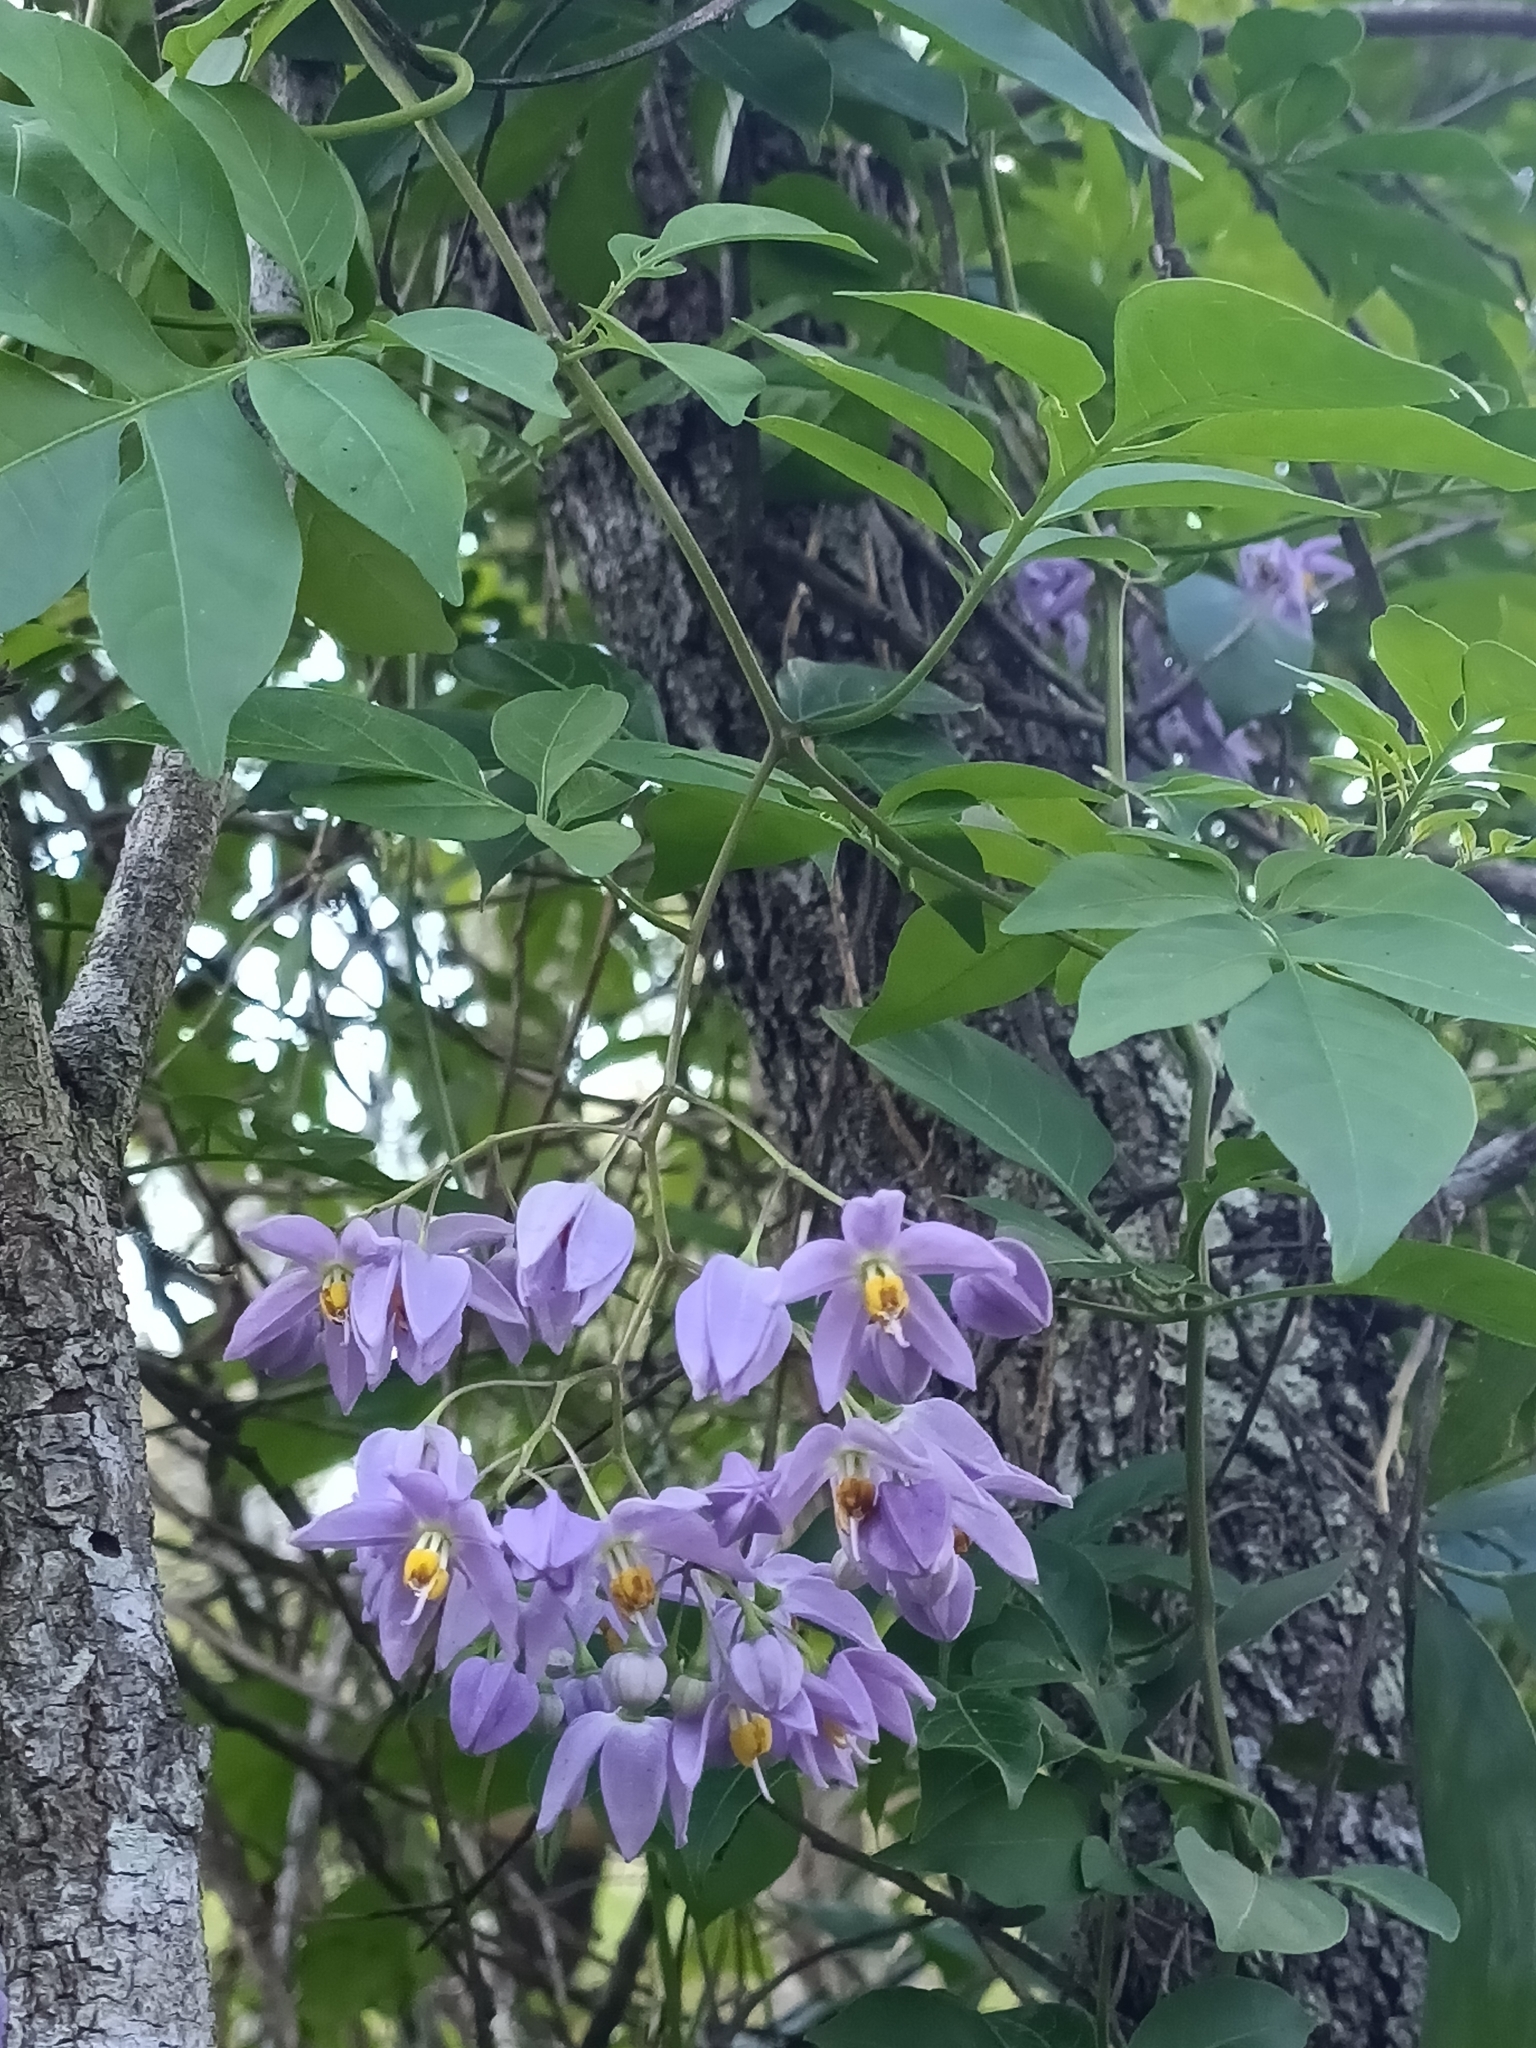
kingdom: Plantae
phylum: Tracheophyta
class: Magnoliopsida
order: Solanales
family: Solanaceae
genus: Solanum
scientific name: Solanum seaforthianum
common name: Brazilian nightshade
